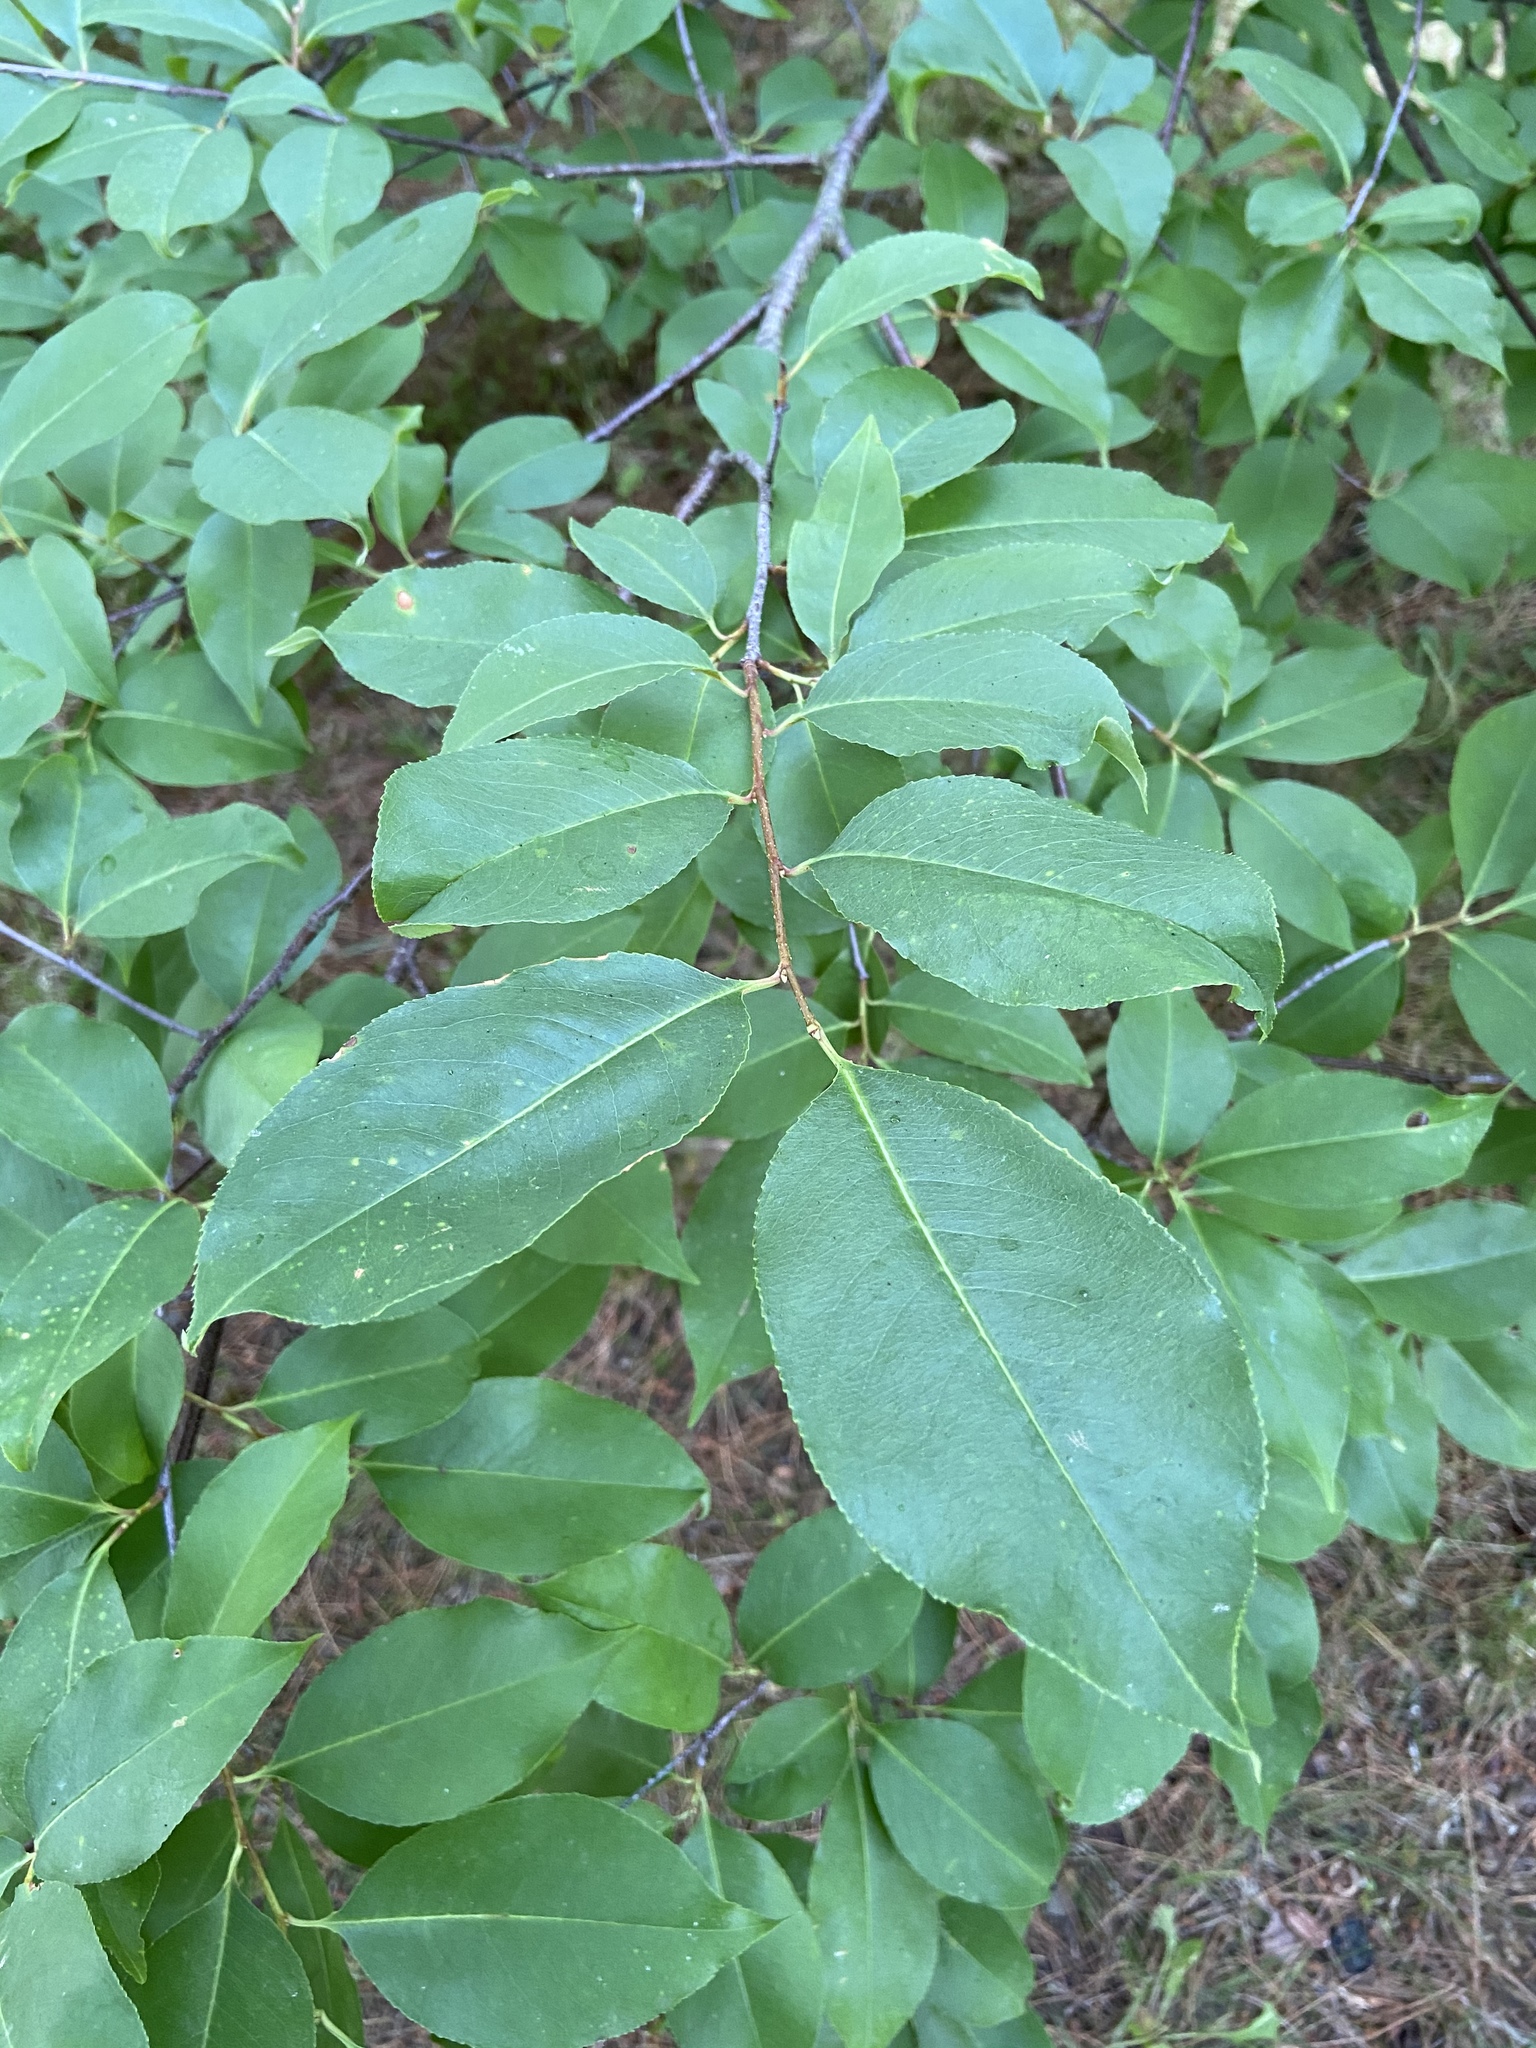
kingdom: Plantae
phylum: Tracheophyta
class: Magnoliopsida
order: Rosales
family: Rosaceae
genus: Prunus
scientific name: Prunus serotina
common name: Black cherry
